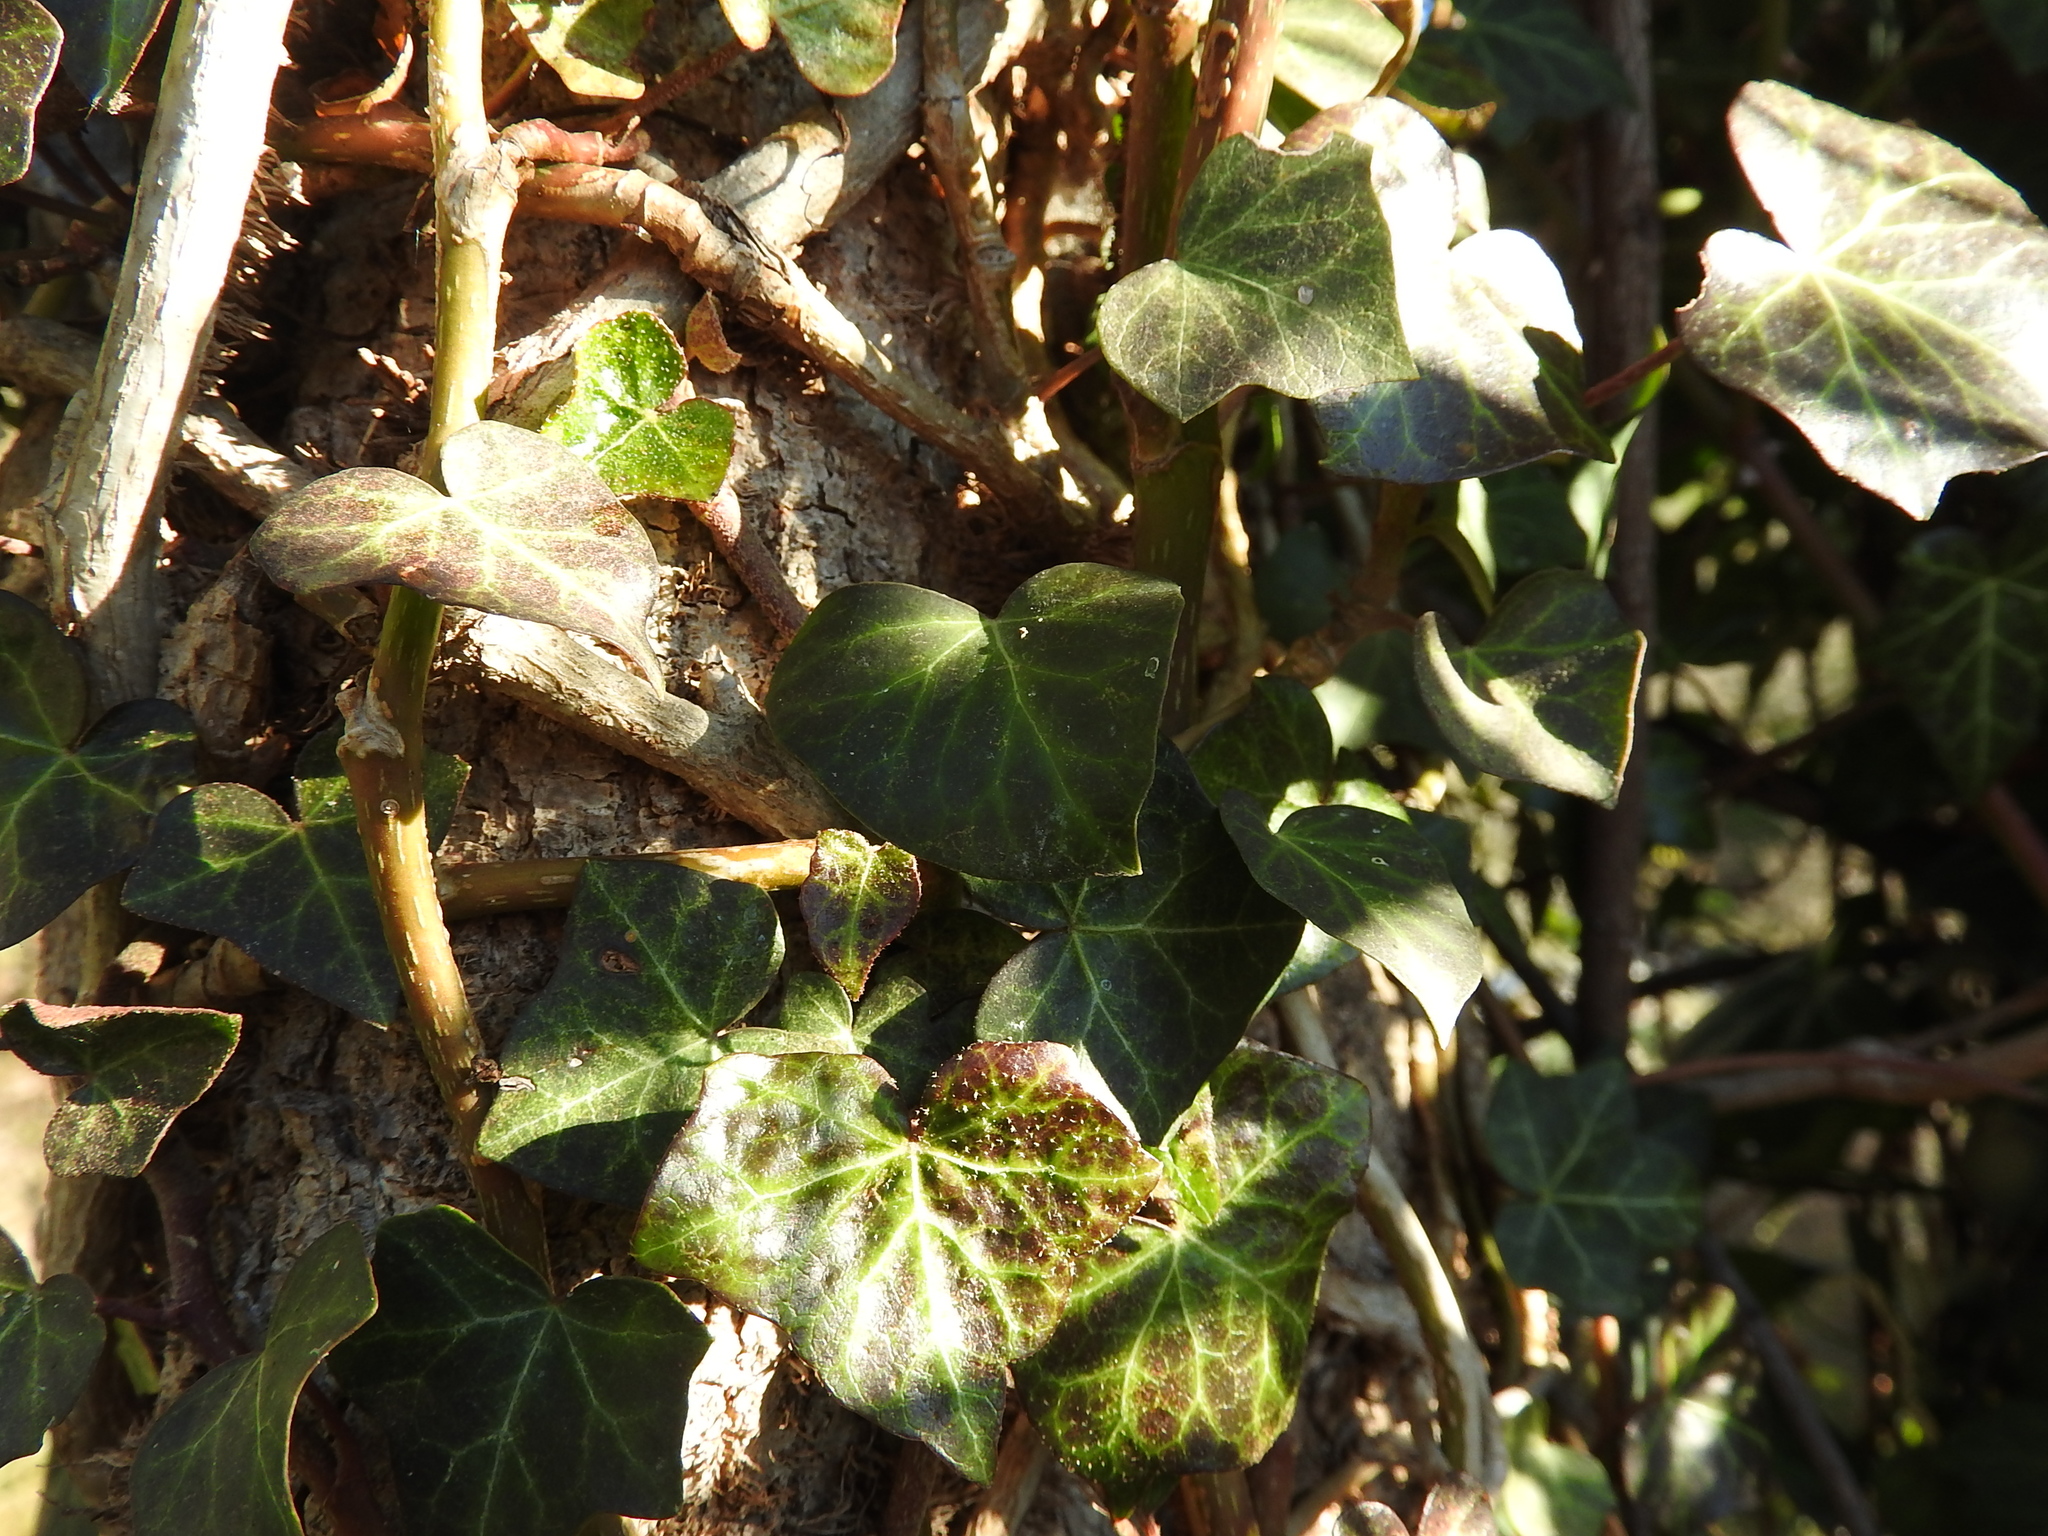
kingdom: Plantae
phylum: Tracheophyta
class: Magnoliopsida
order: Apiales
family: Araliaceae
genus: Hedera
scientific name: Hedera helix
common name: Ivy
